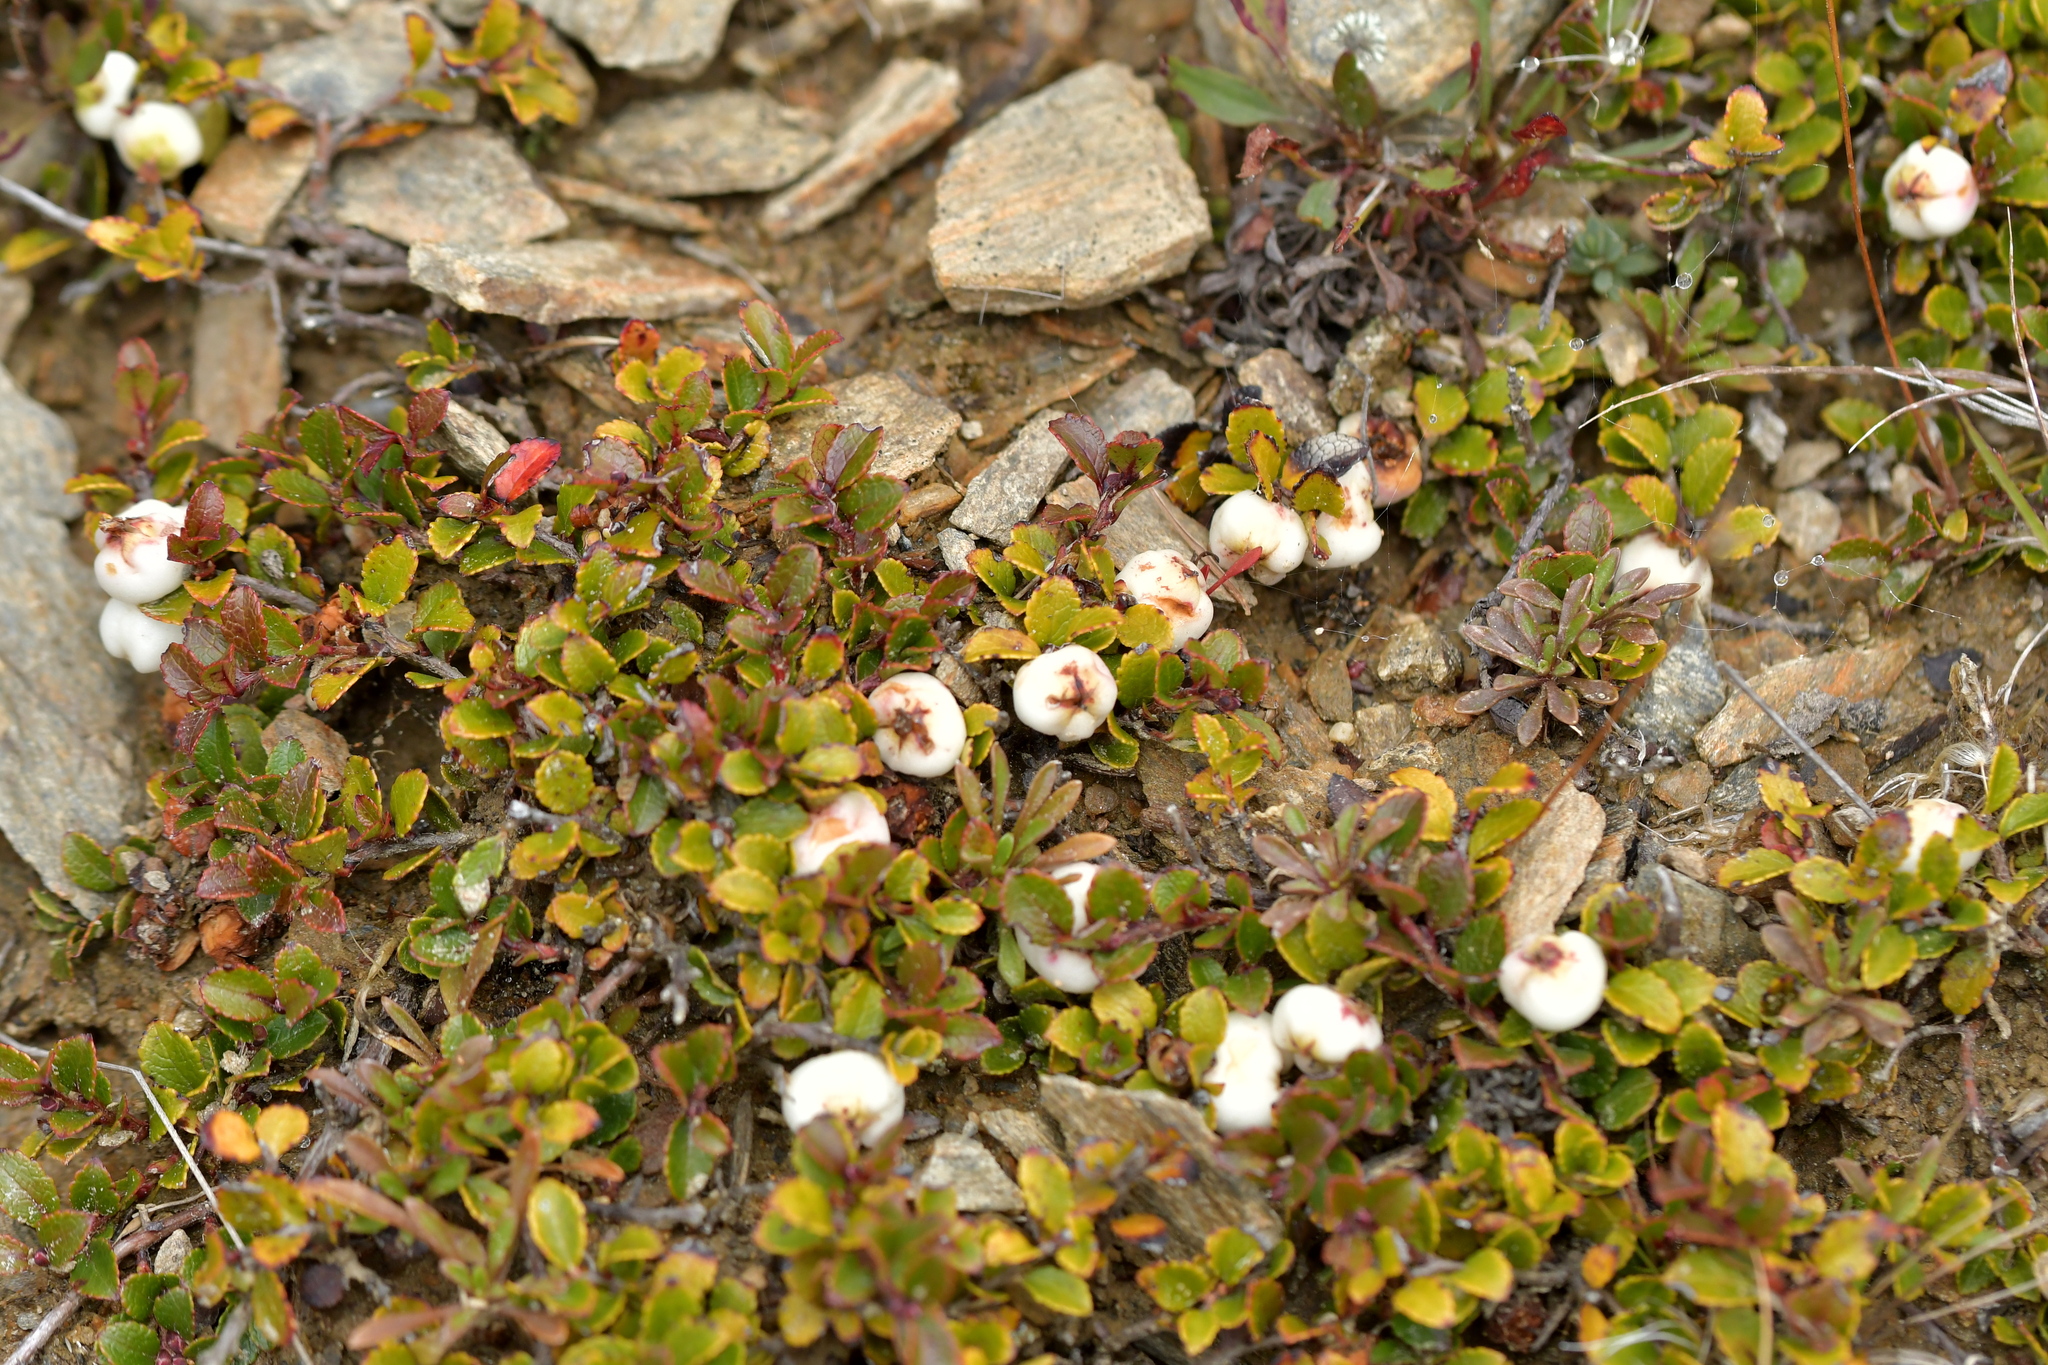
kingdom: Plantae
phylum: Tracheophyta
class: Magnoliopsida
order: Ericales
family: Ericaceae
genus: Gaultheria
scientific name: Gaultheria depressa
